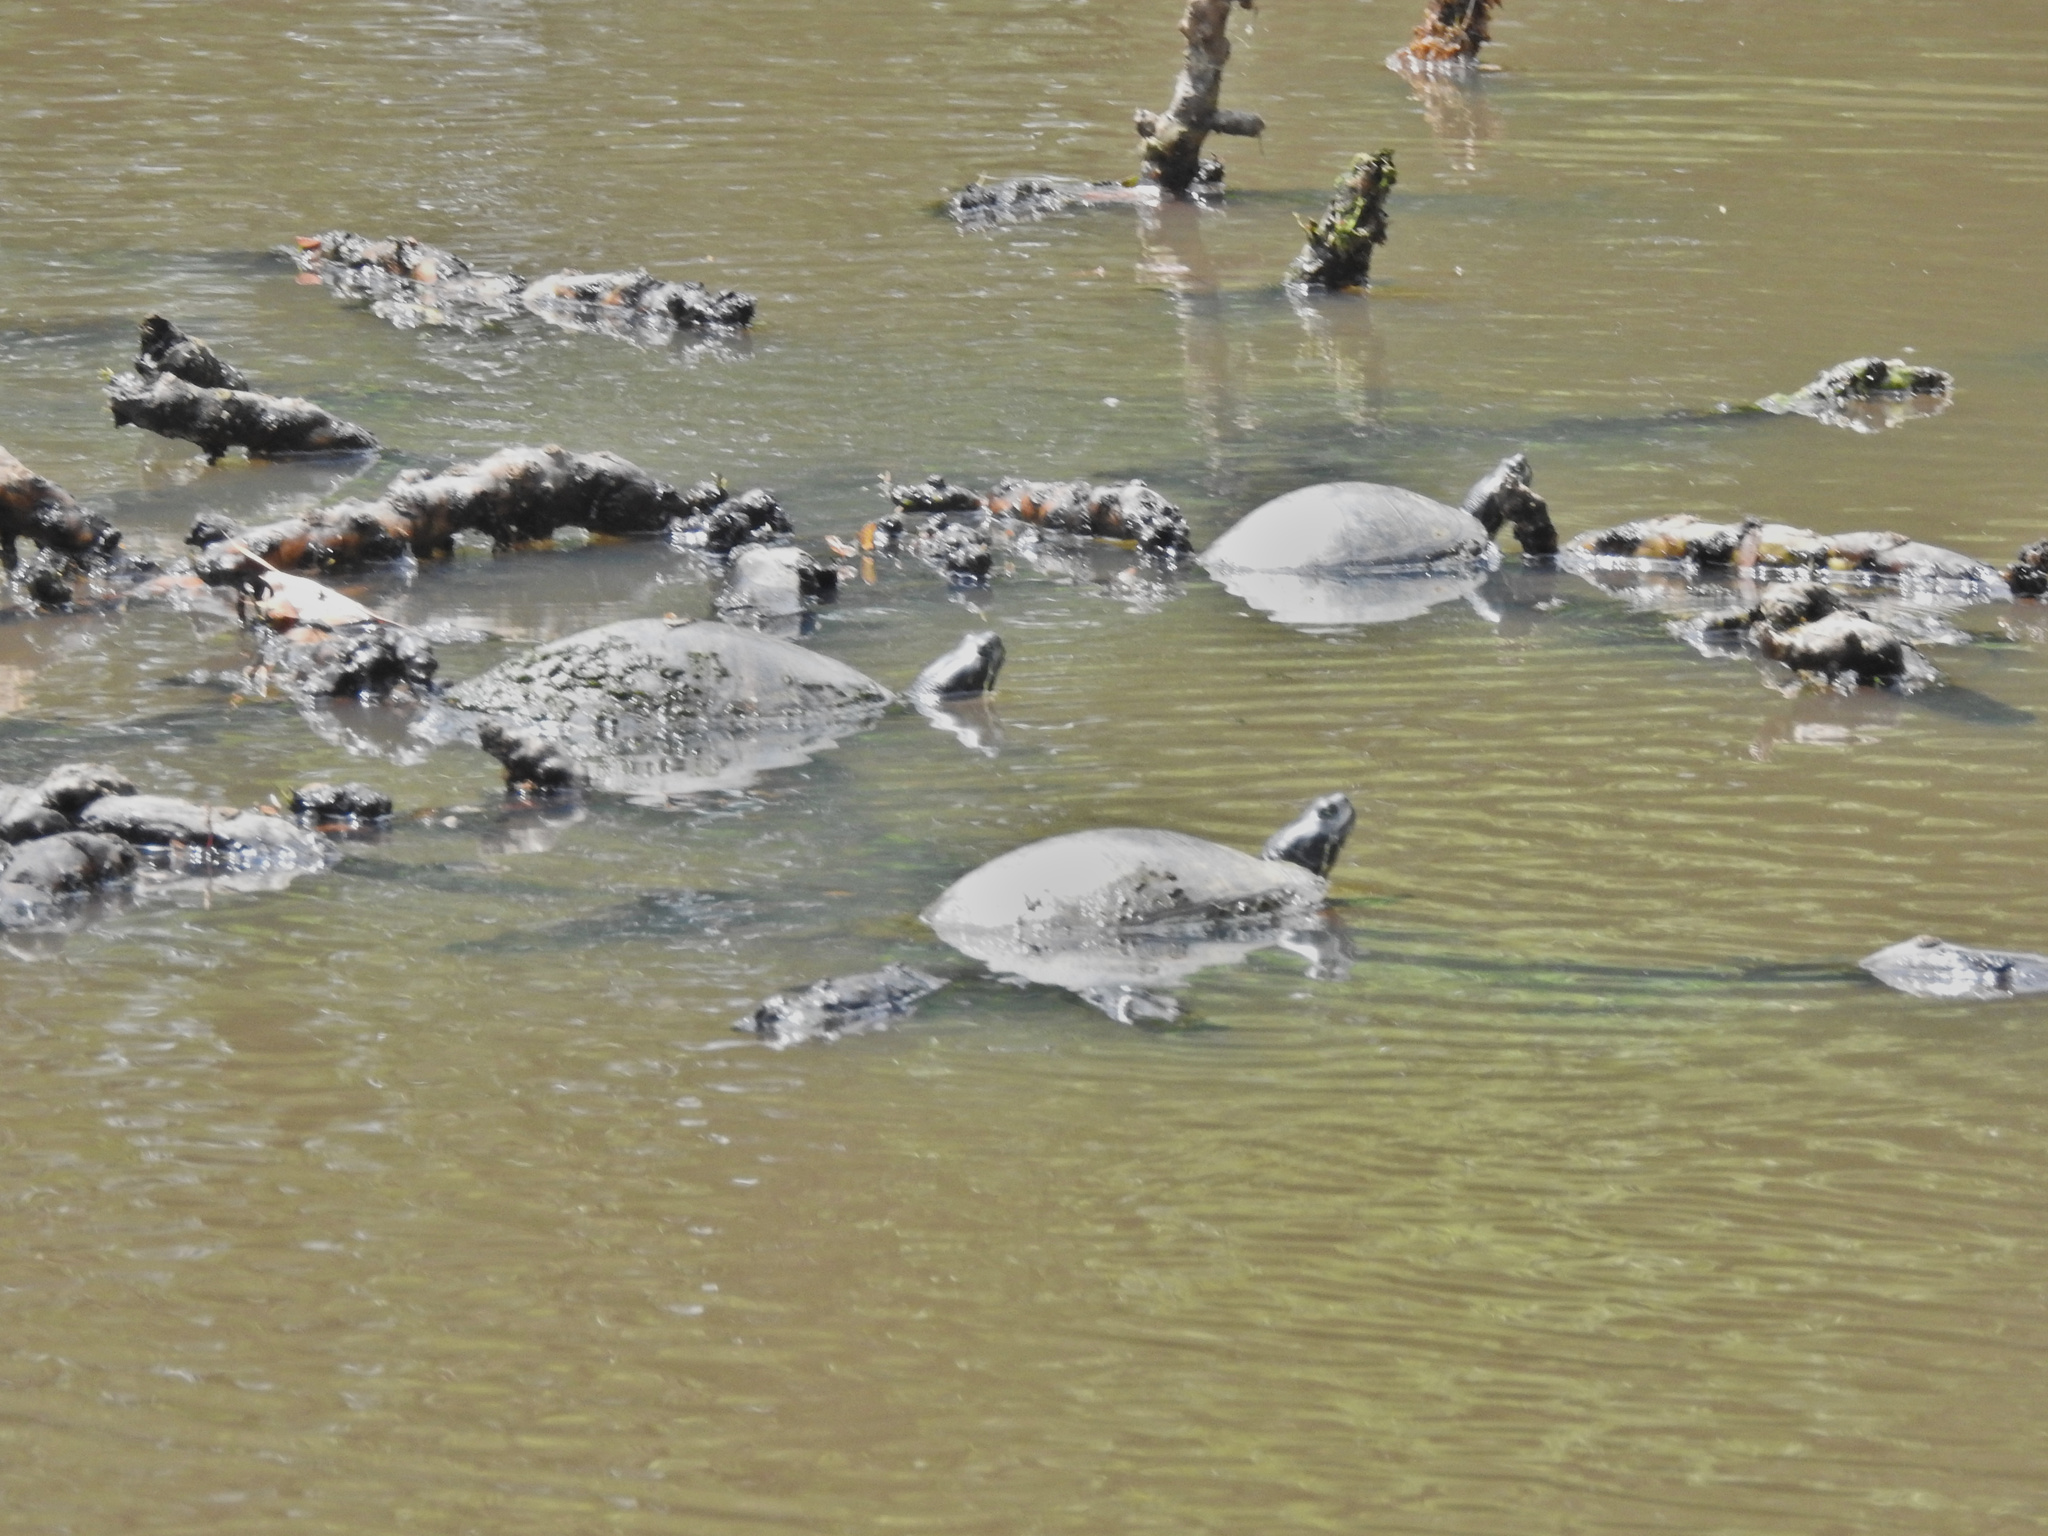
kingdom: Animalia
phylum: Chordata
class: Testudines
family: Emydidae
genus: Pseudemys
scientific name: Pseudemys rubriventris
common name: American red-bellied turtle
